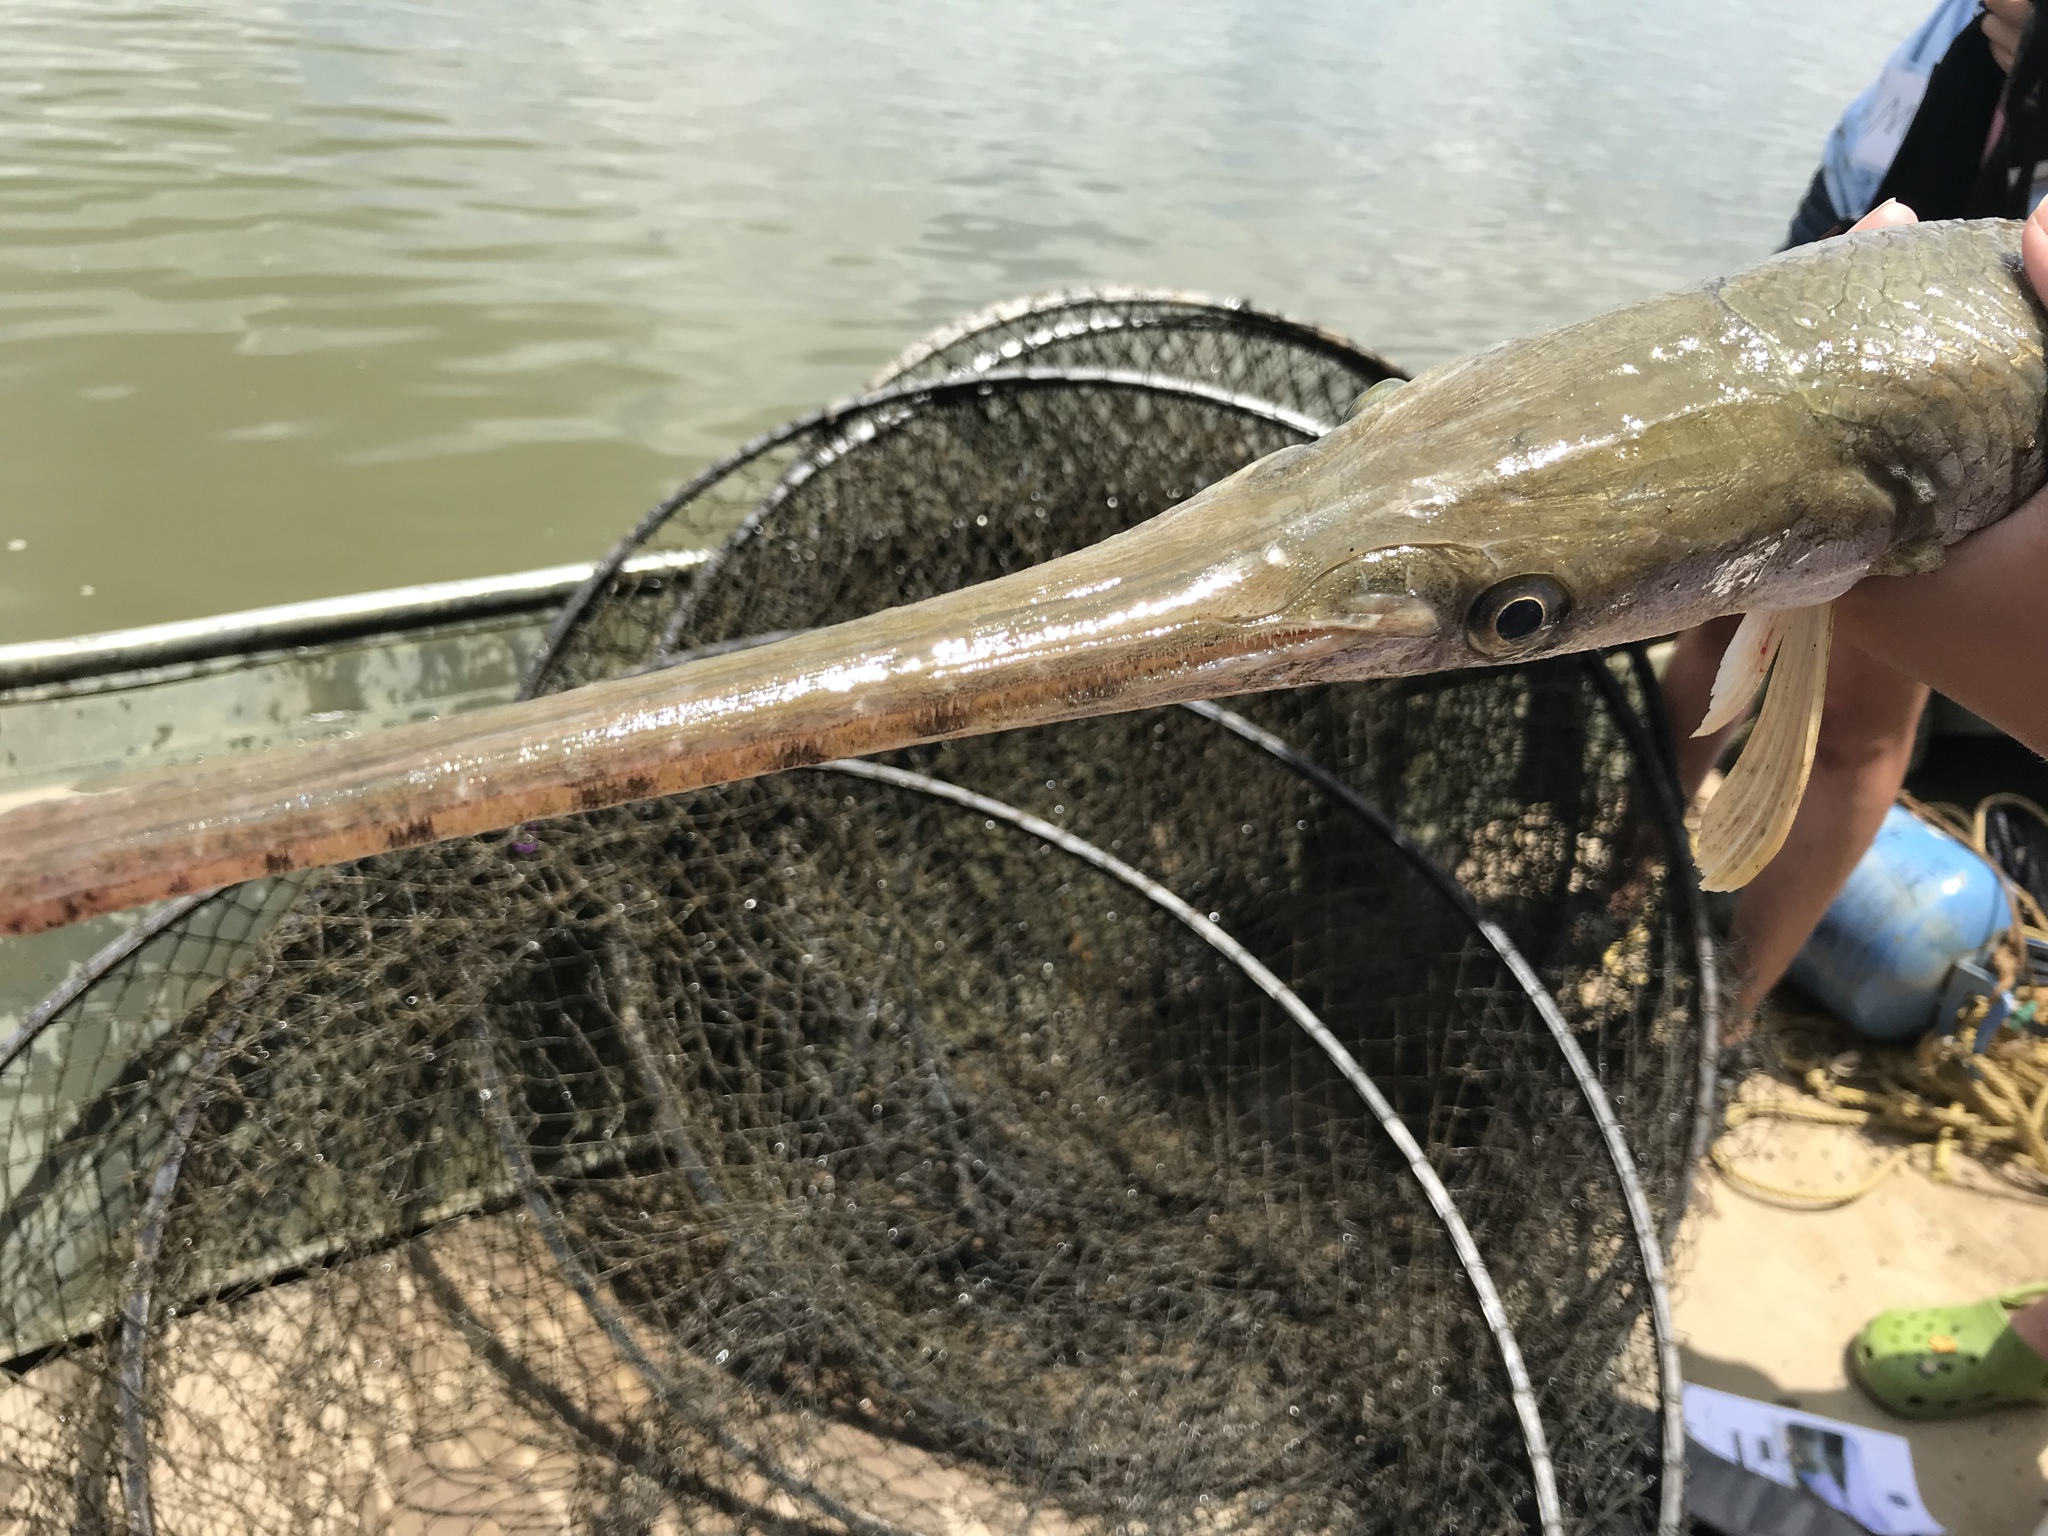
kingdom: Animalia
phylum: Chordata
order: Lepisosteiformes
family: Lepisosteidae
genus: Lepisosteus
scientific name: Lepisosteus osseus
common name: Longnose gar
